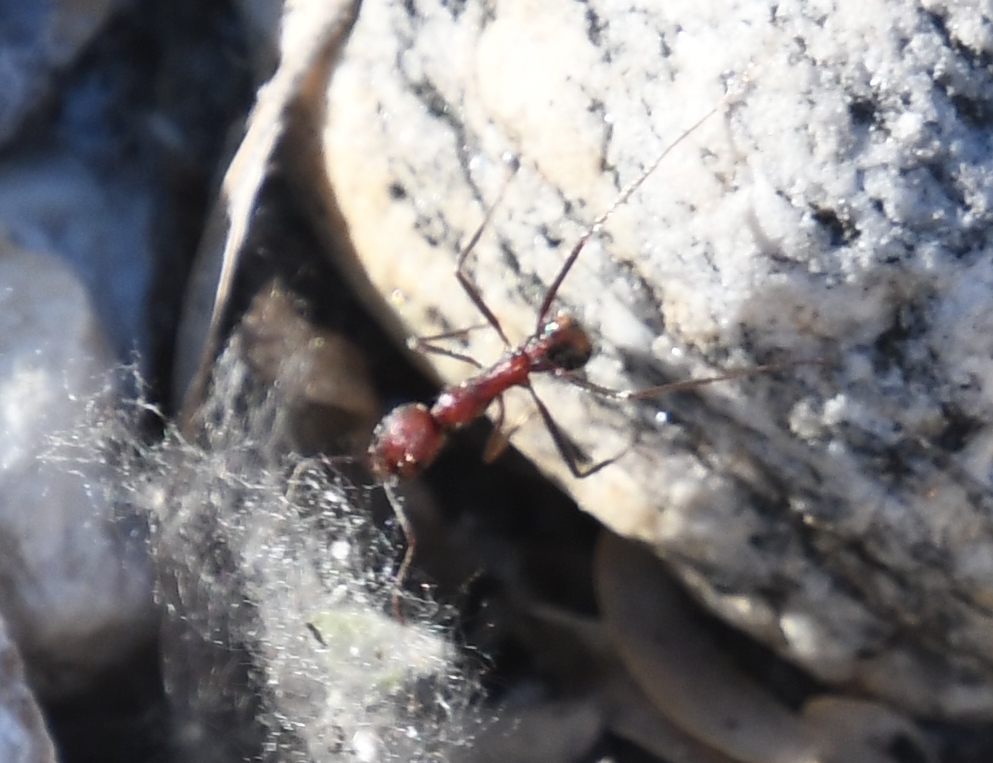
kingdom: Animalia
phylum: Arthropoda
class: Insecta
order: Hymenoptera
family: Formicidae
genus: Novomessor
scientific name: Novomessor albisetosa
